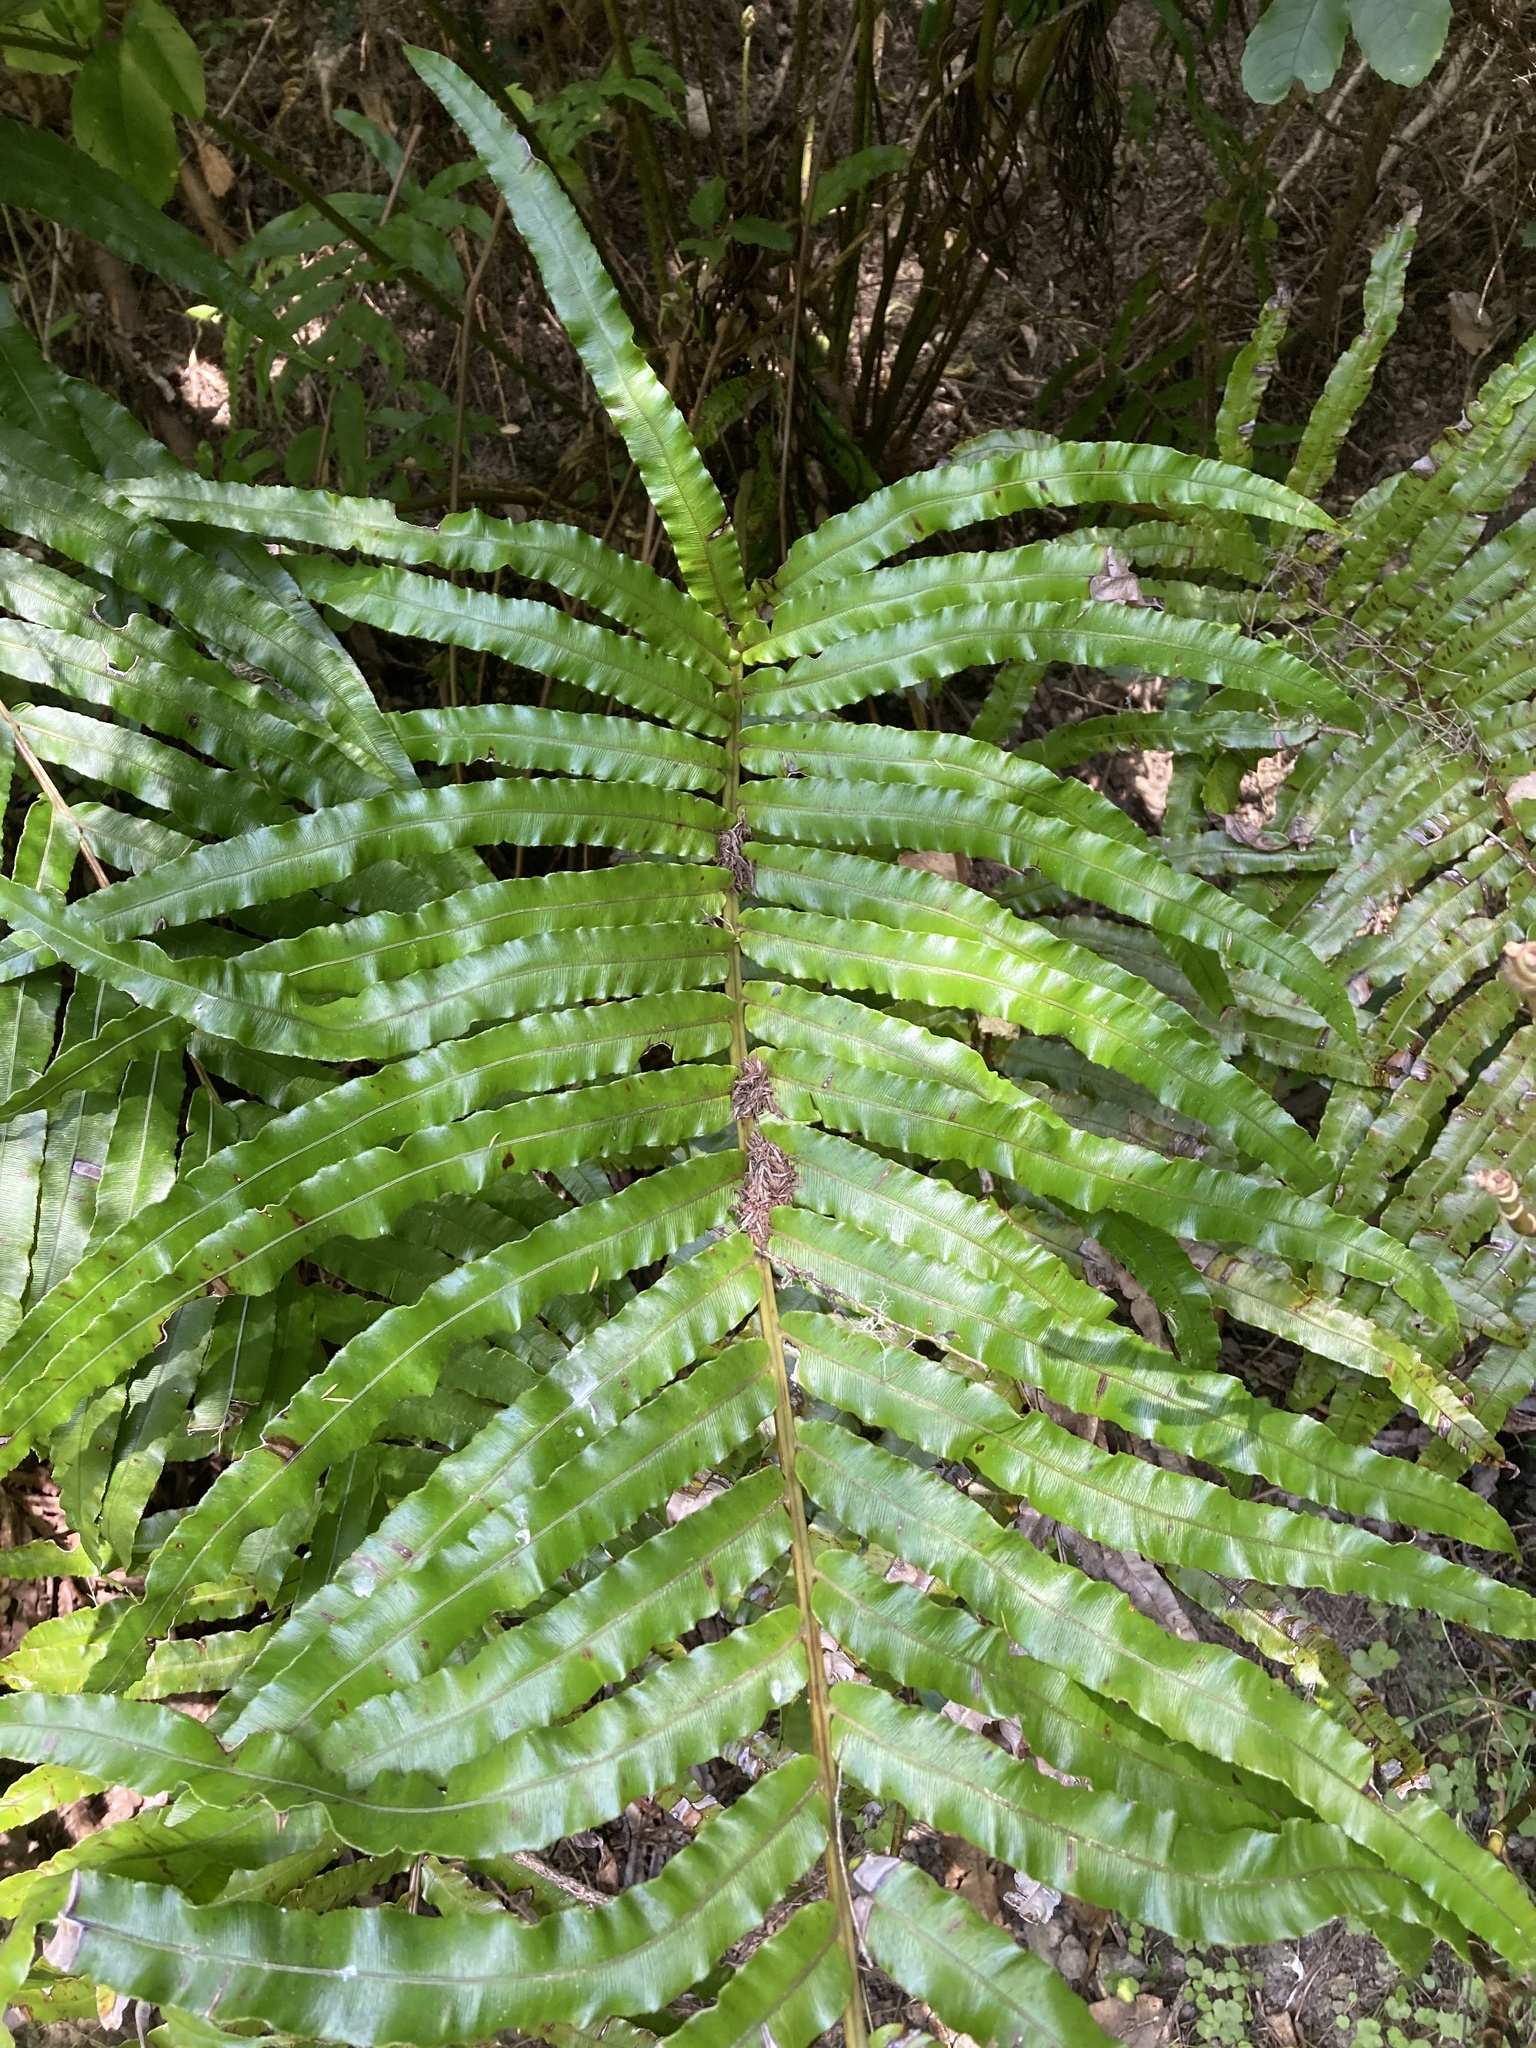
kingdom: Plantae
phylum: Tracheophyta
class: Polypodiopsida
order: Polypodiales
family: Blechnaceae
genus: Parablechnum
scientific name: Parablechnum triangularifolium
